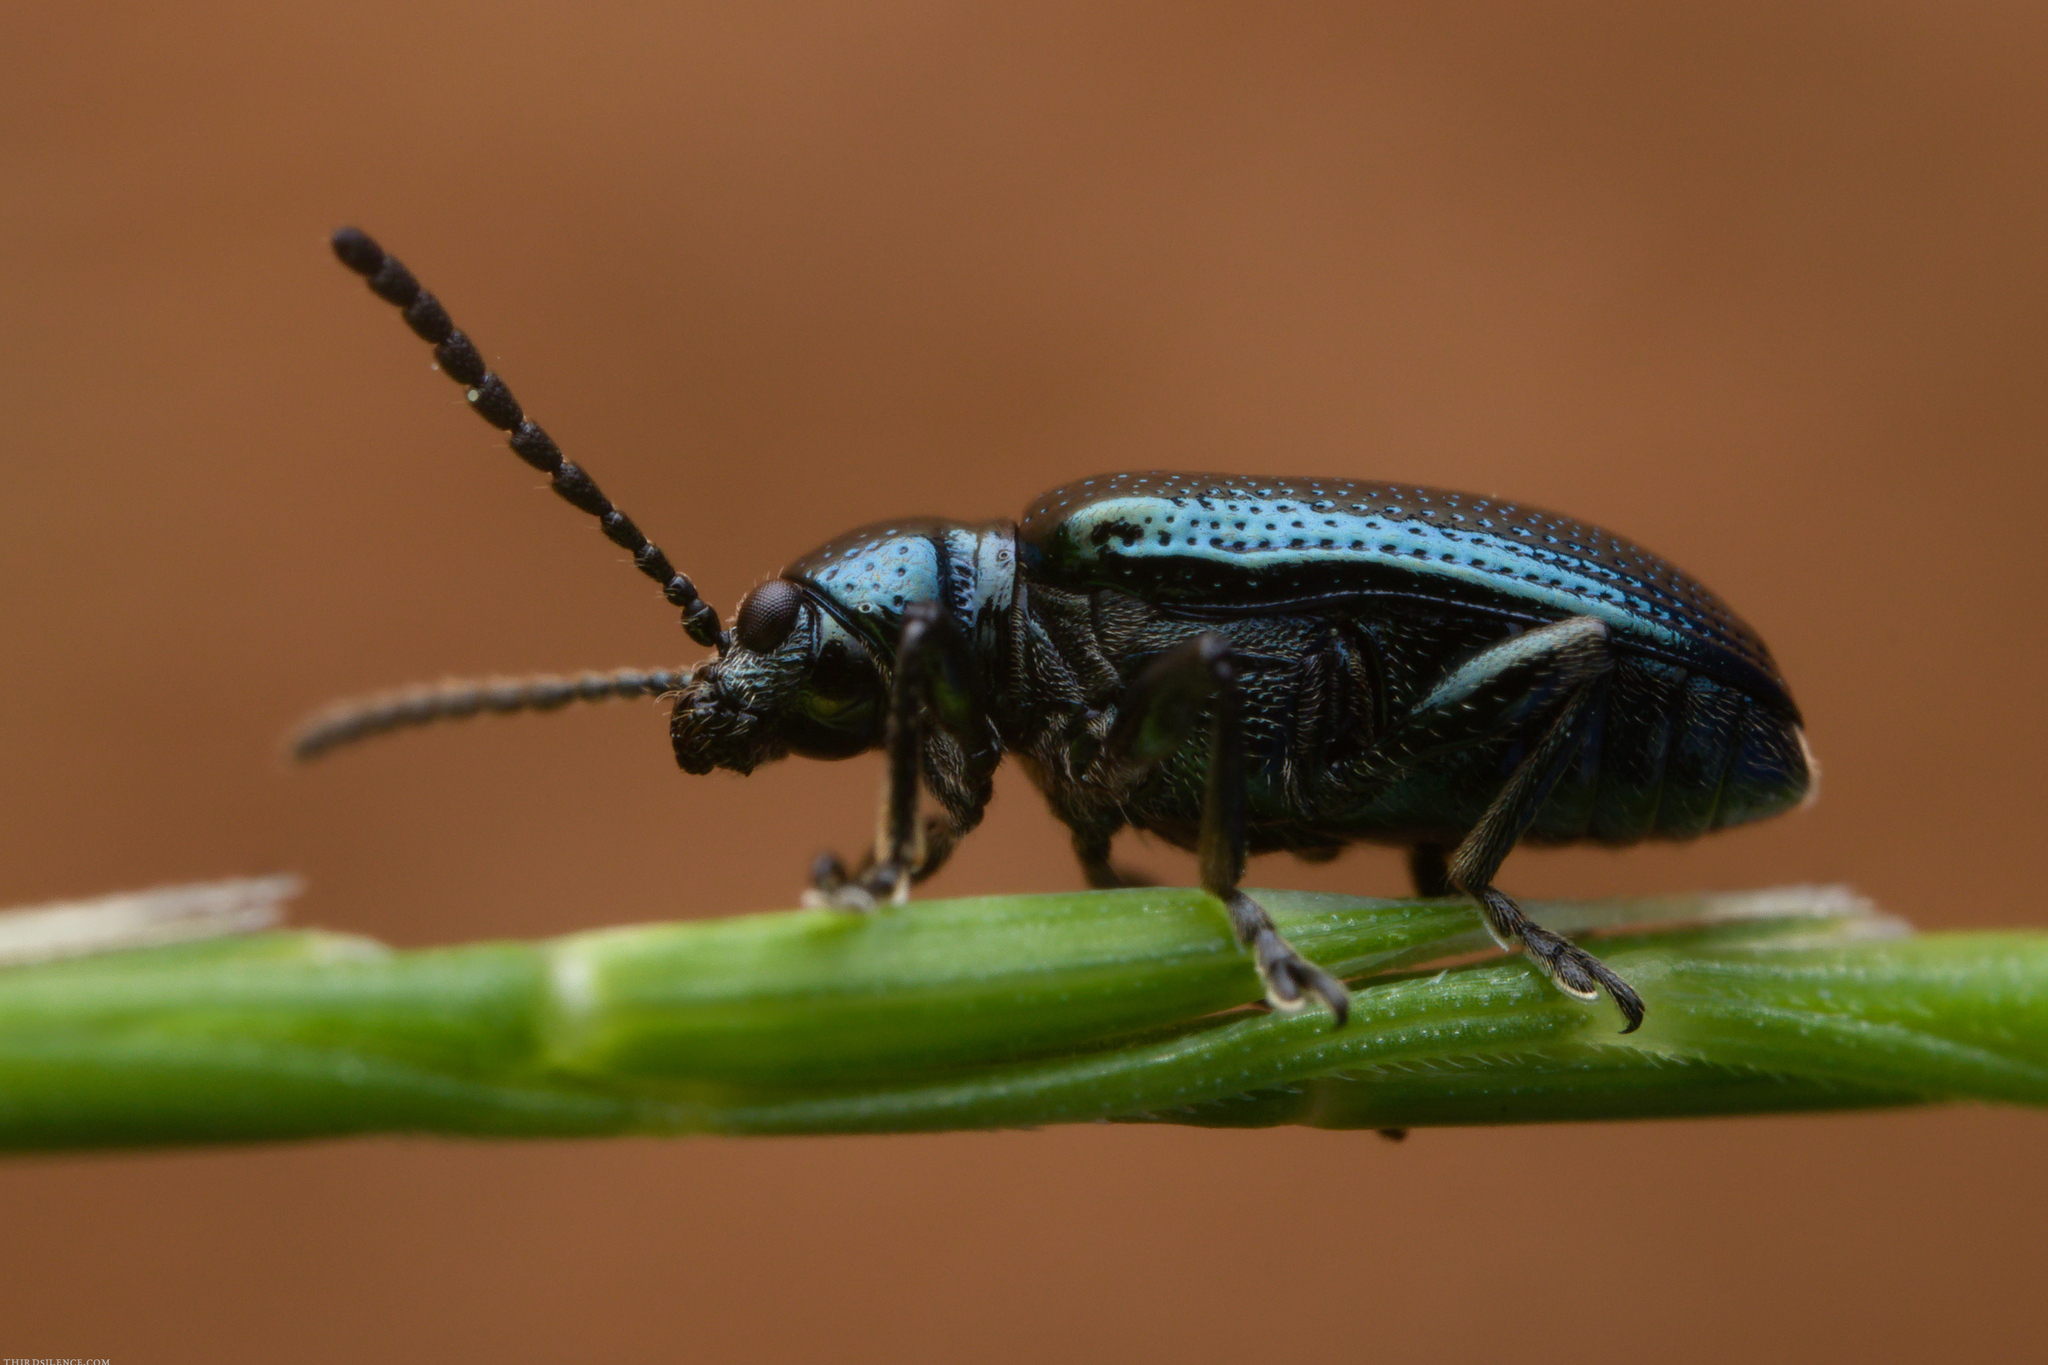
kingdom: Animalia
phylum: Arthropoda
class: Insecta
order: Coleoptera
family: Chrysomelidae
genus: Oulema
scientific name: Oulema gallaeciana
